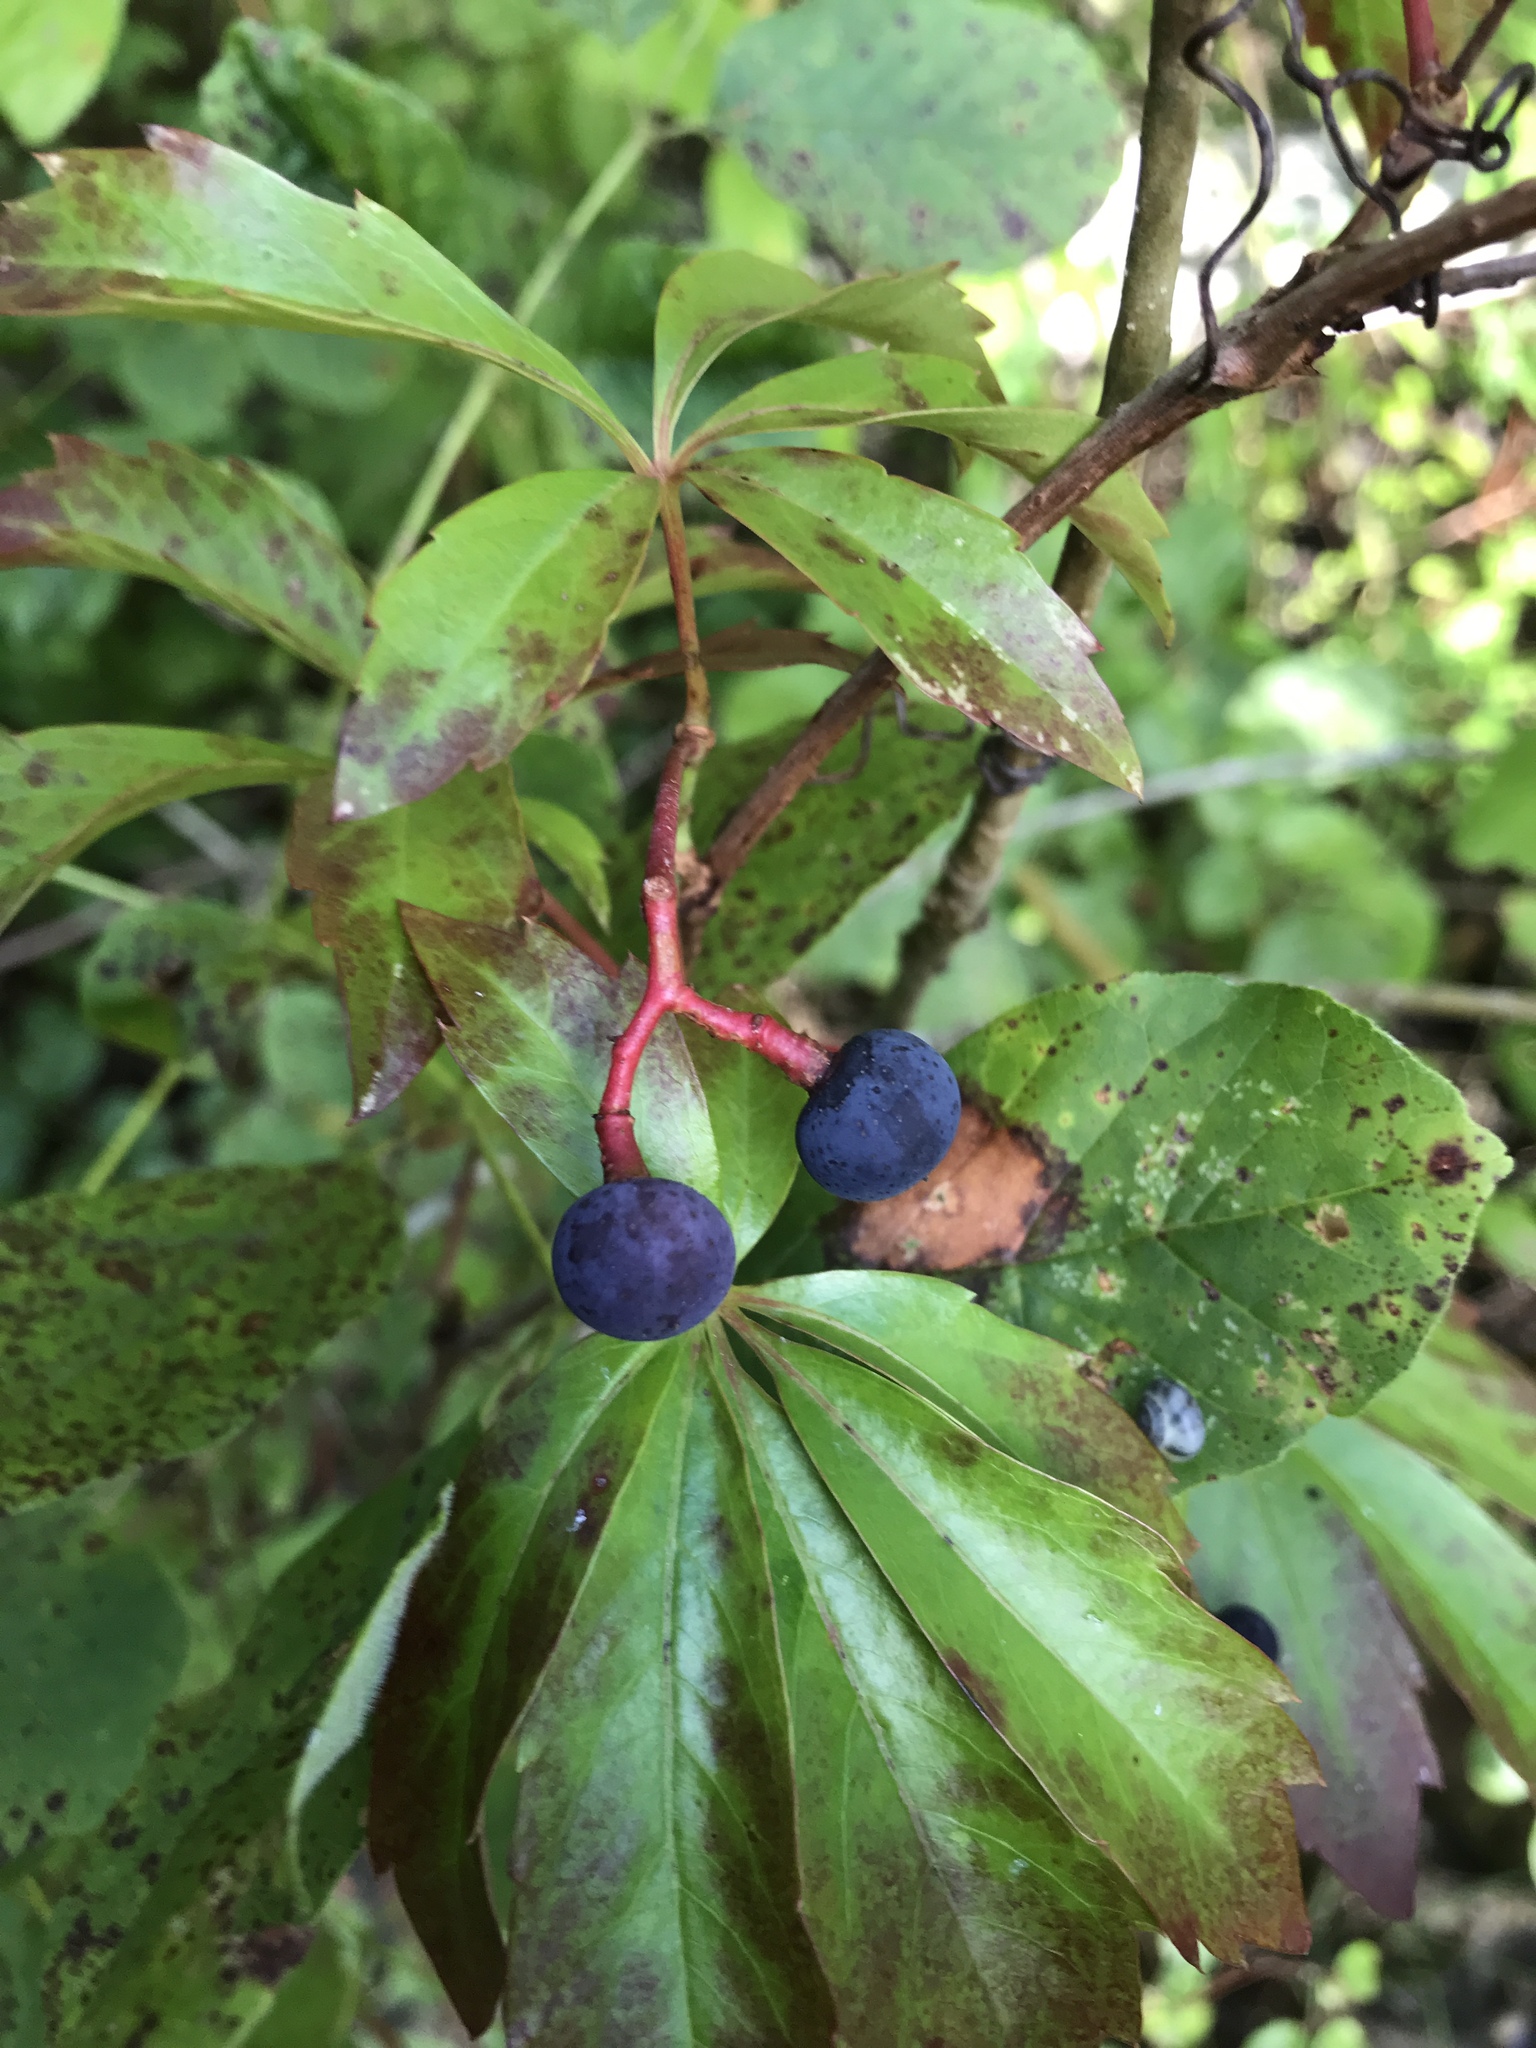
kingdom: Plantae
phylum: Tracheophyta
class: Magnoliopsida
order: Vitales
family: Vitaceae
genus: Parthenocissus
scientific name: Parthenocissus heptaphylla
